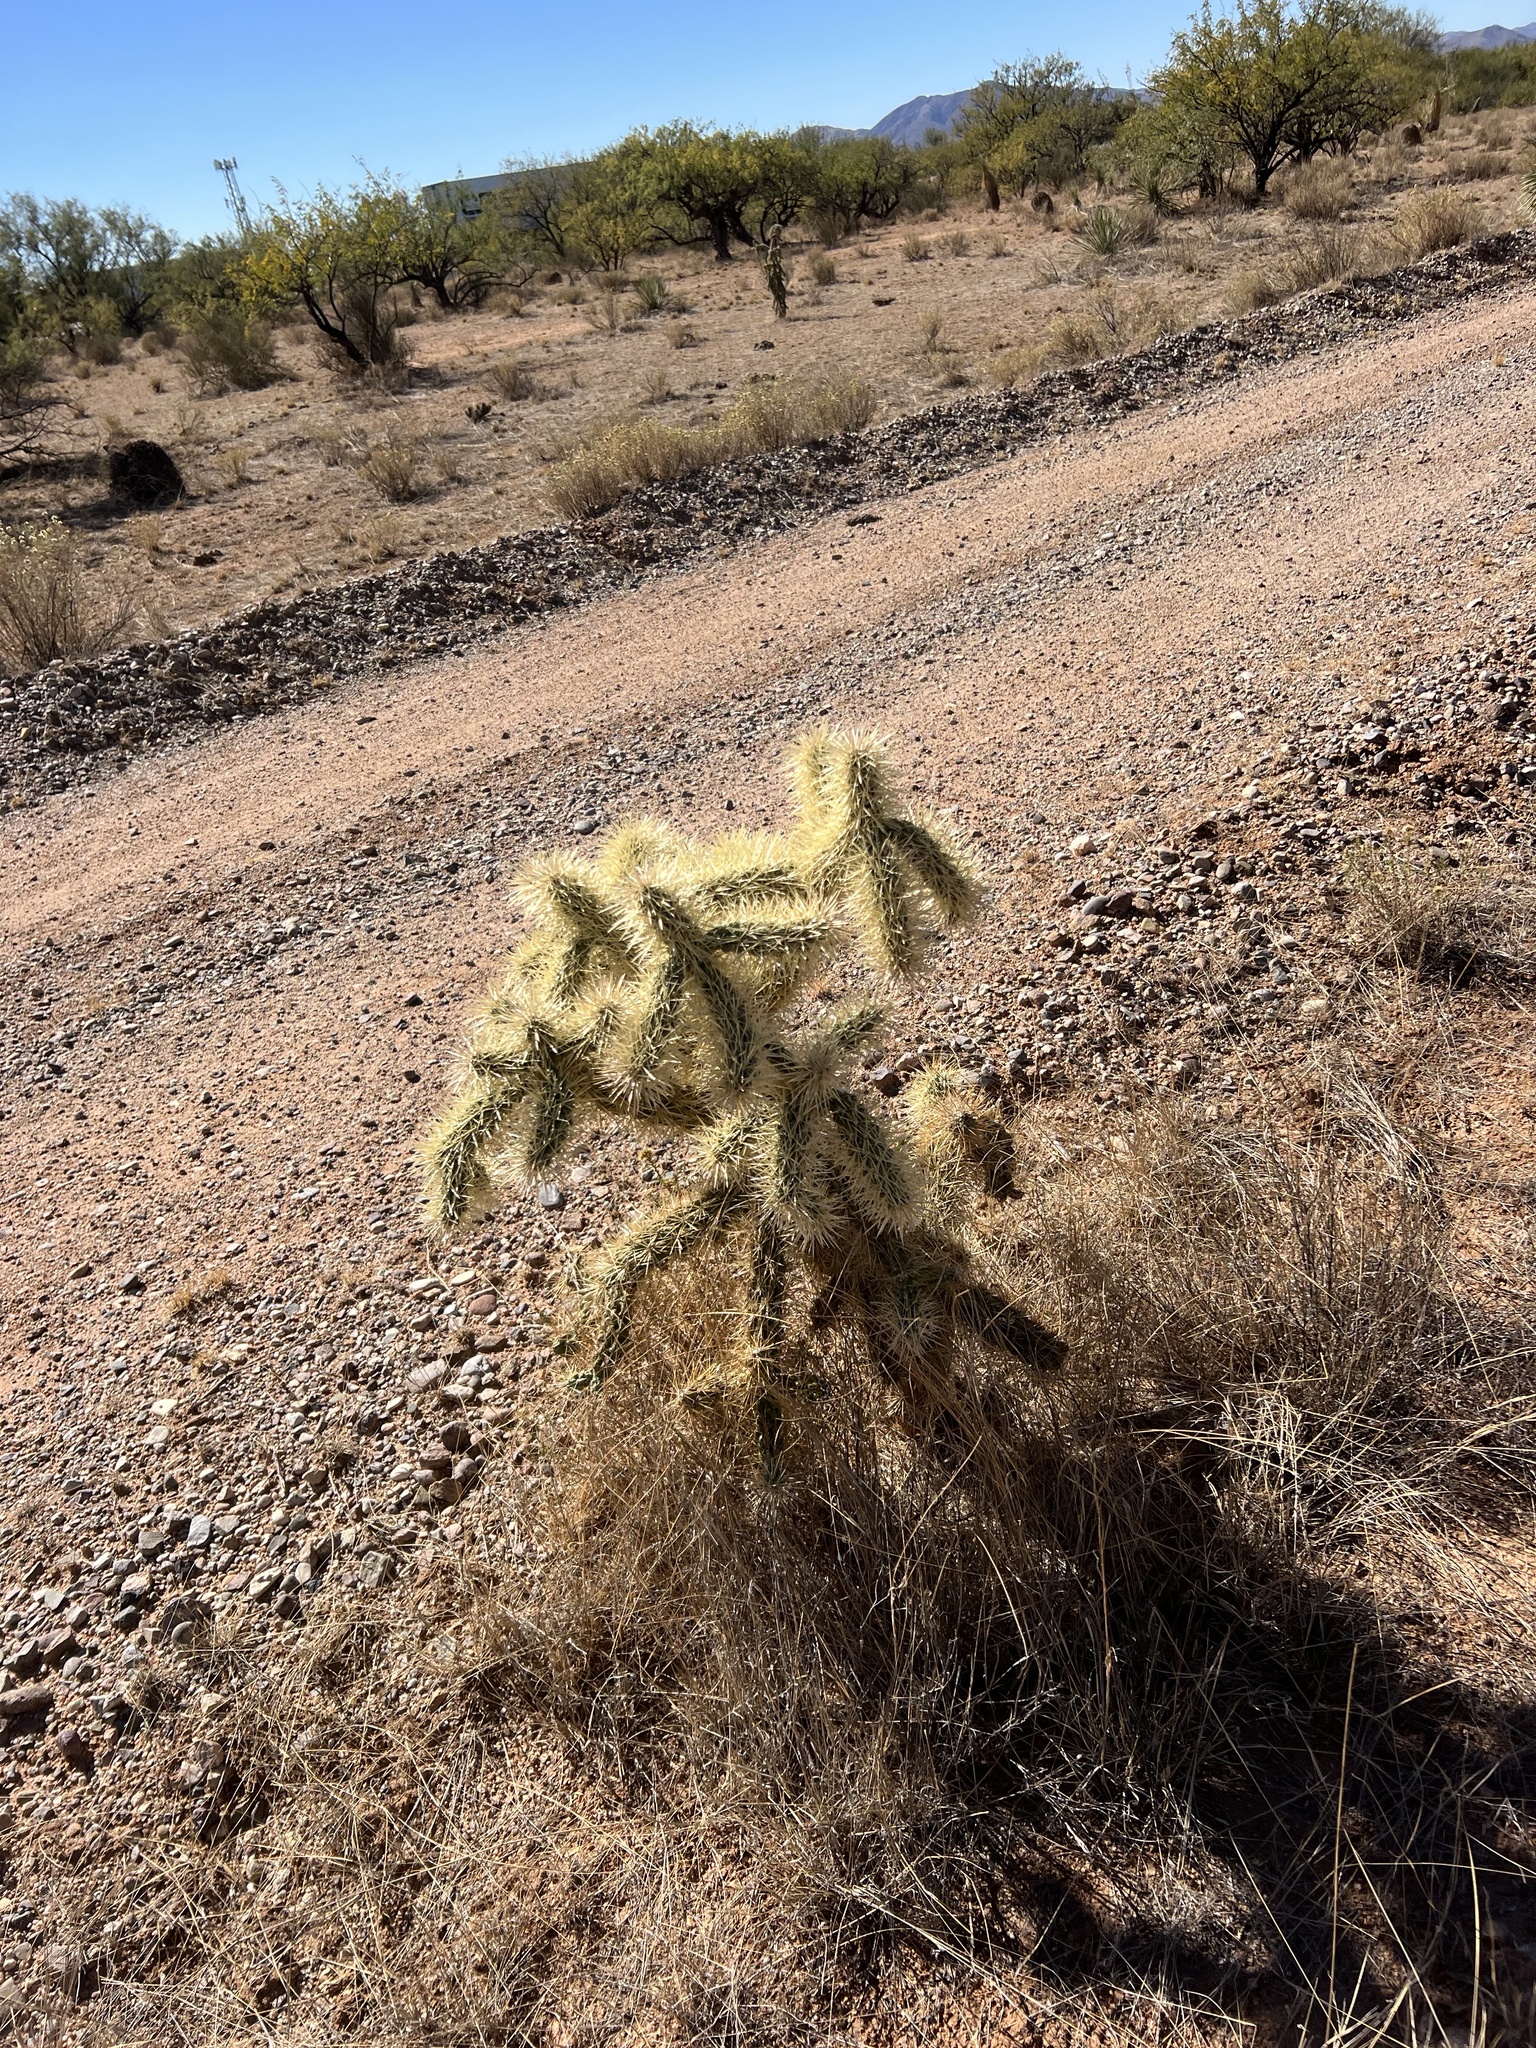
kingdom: Plantae
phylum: Tracheophyta
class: Magnoliopsida
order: Caryophyllales
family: Cactaceae
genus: Cylindropuntia
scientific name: Cylindropuntia fulgida
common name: Jumping cholla
